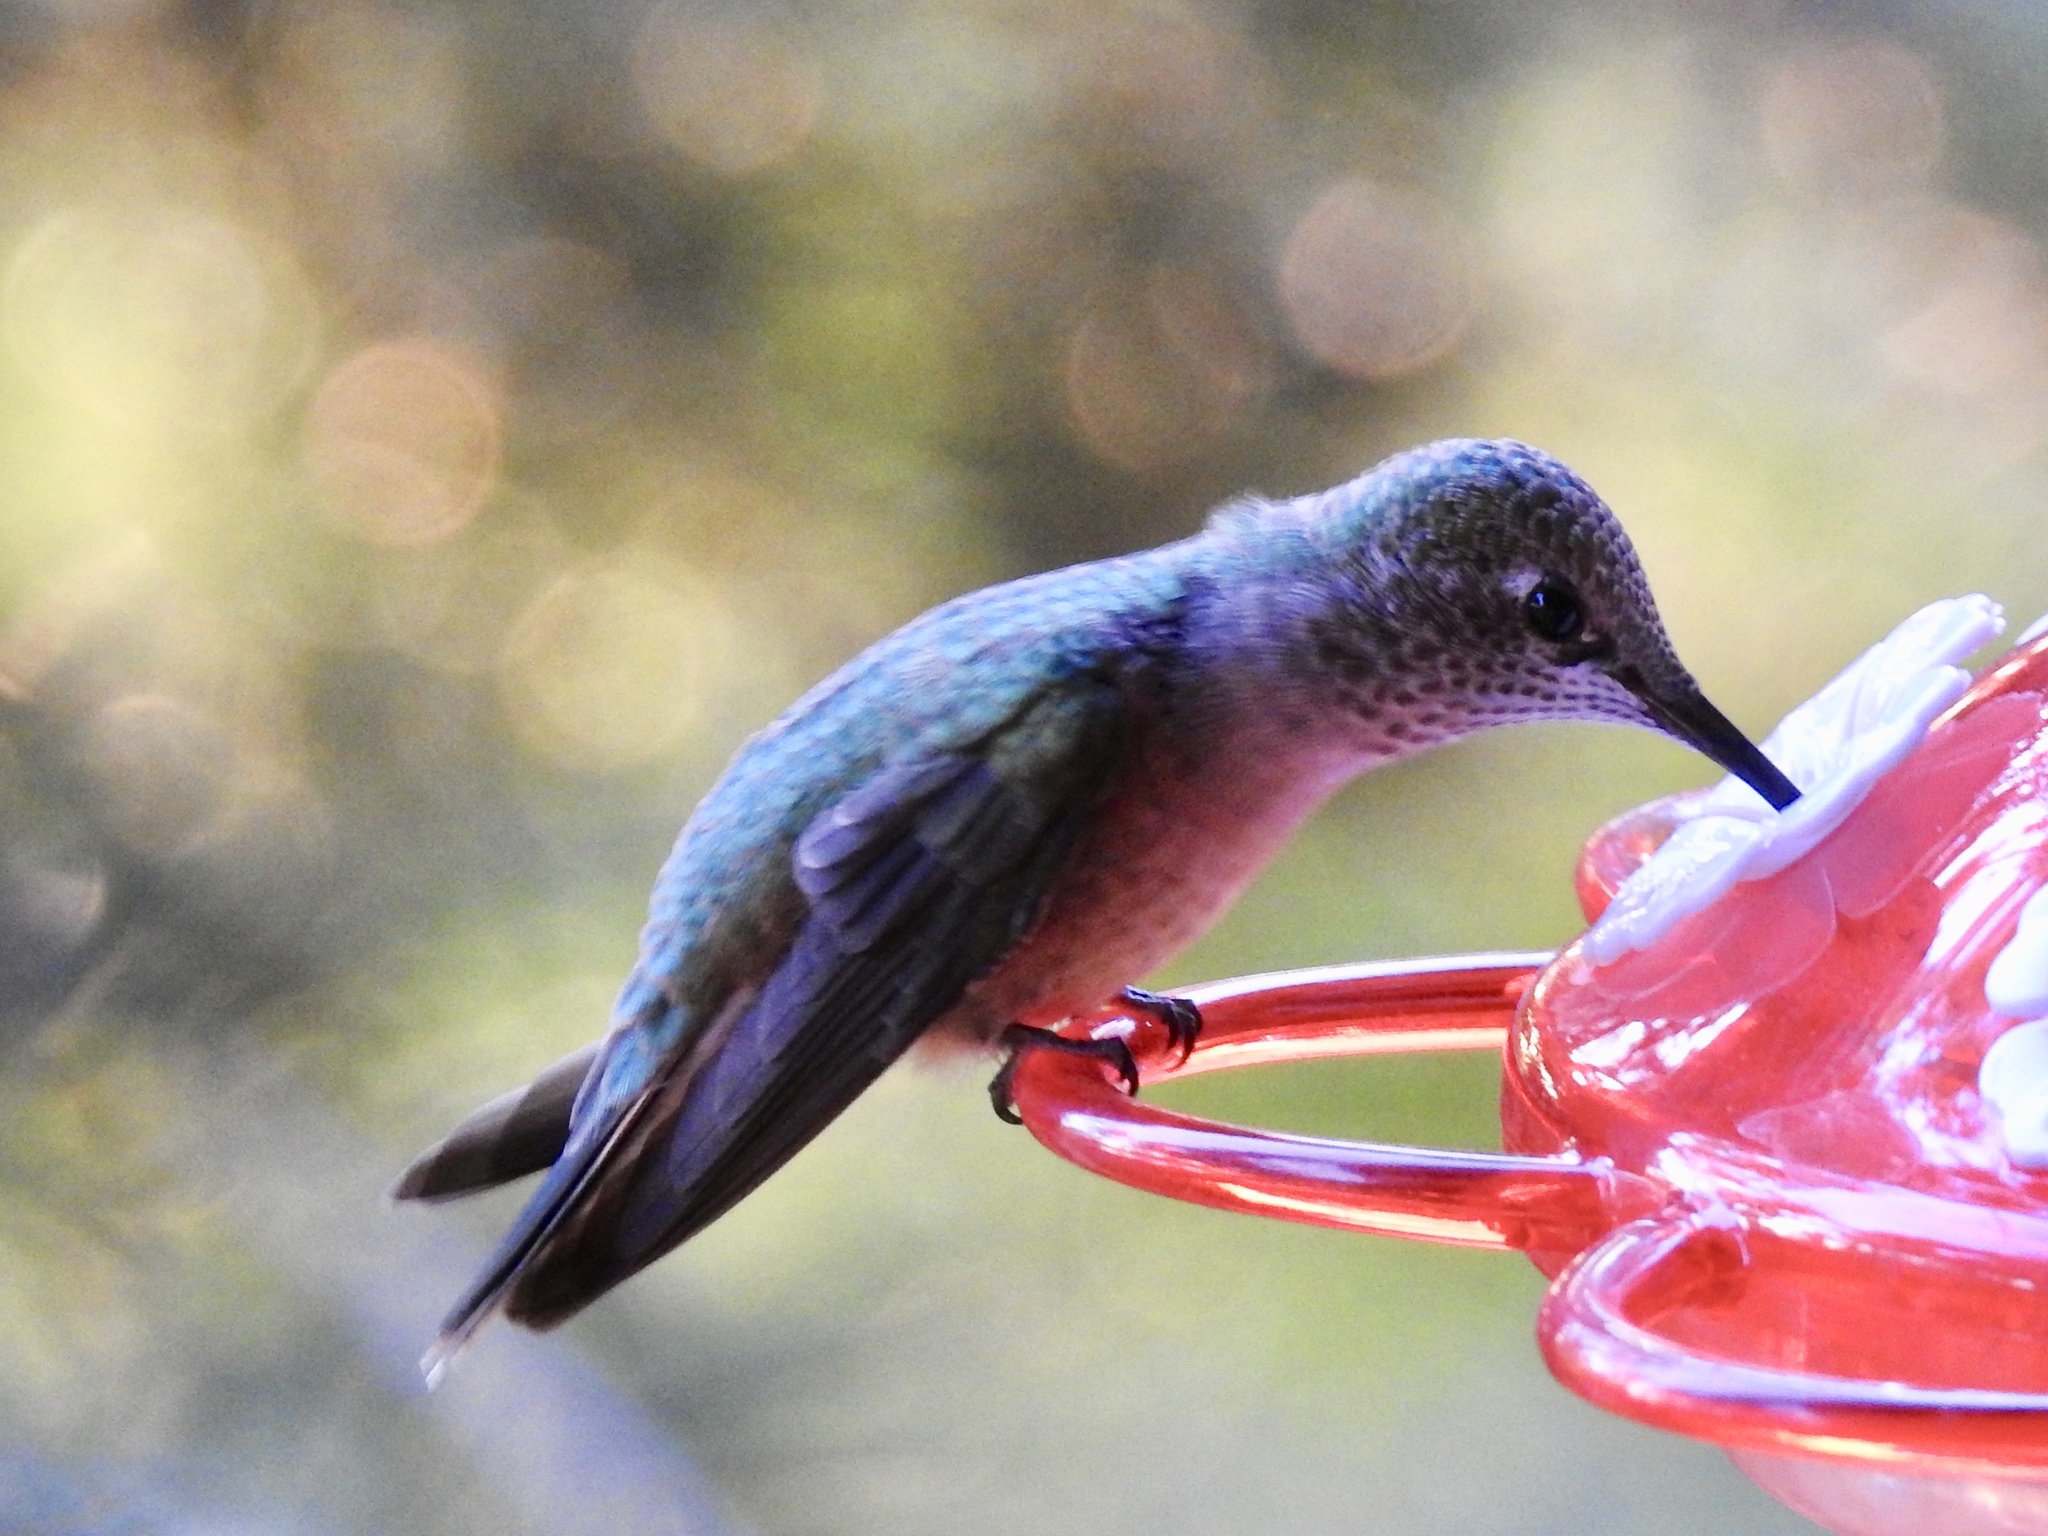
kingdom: Animalia
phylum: Chordata
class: Aves
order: Apodiformes
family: Trochilidae
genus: Selasphorus
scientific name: Selasphorus platycercus
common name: Broad-tailed hummingbird
